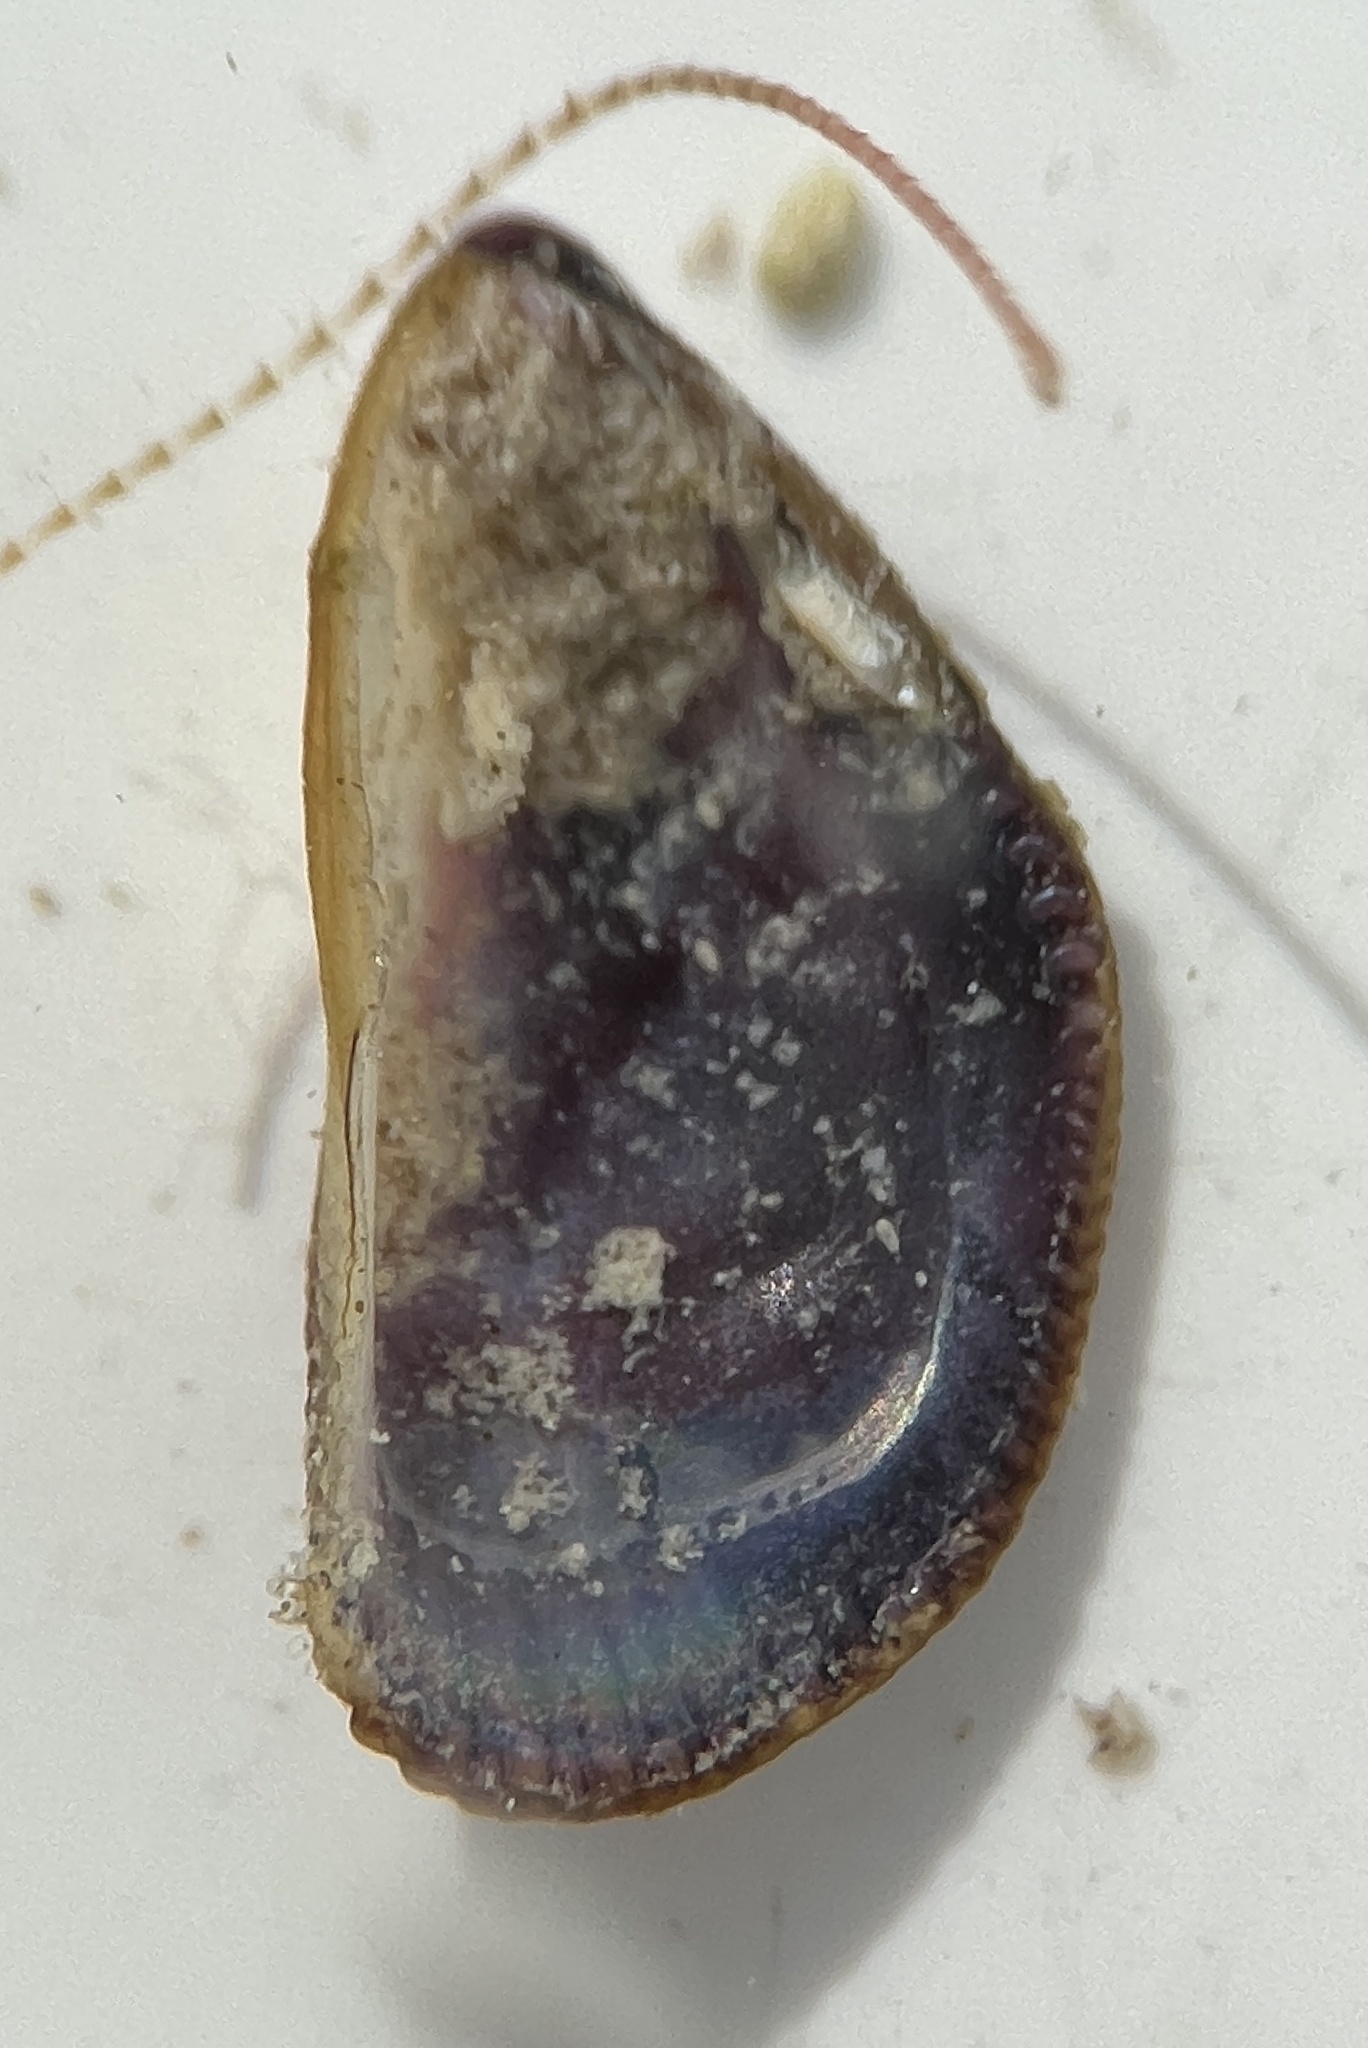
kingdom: Animalia
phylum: Mollusca
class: Bivalvia
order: Mytilida
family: Mytilidae
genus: Brachidontes
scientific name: Brachidontes domingensis
